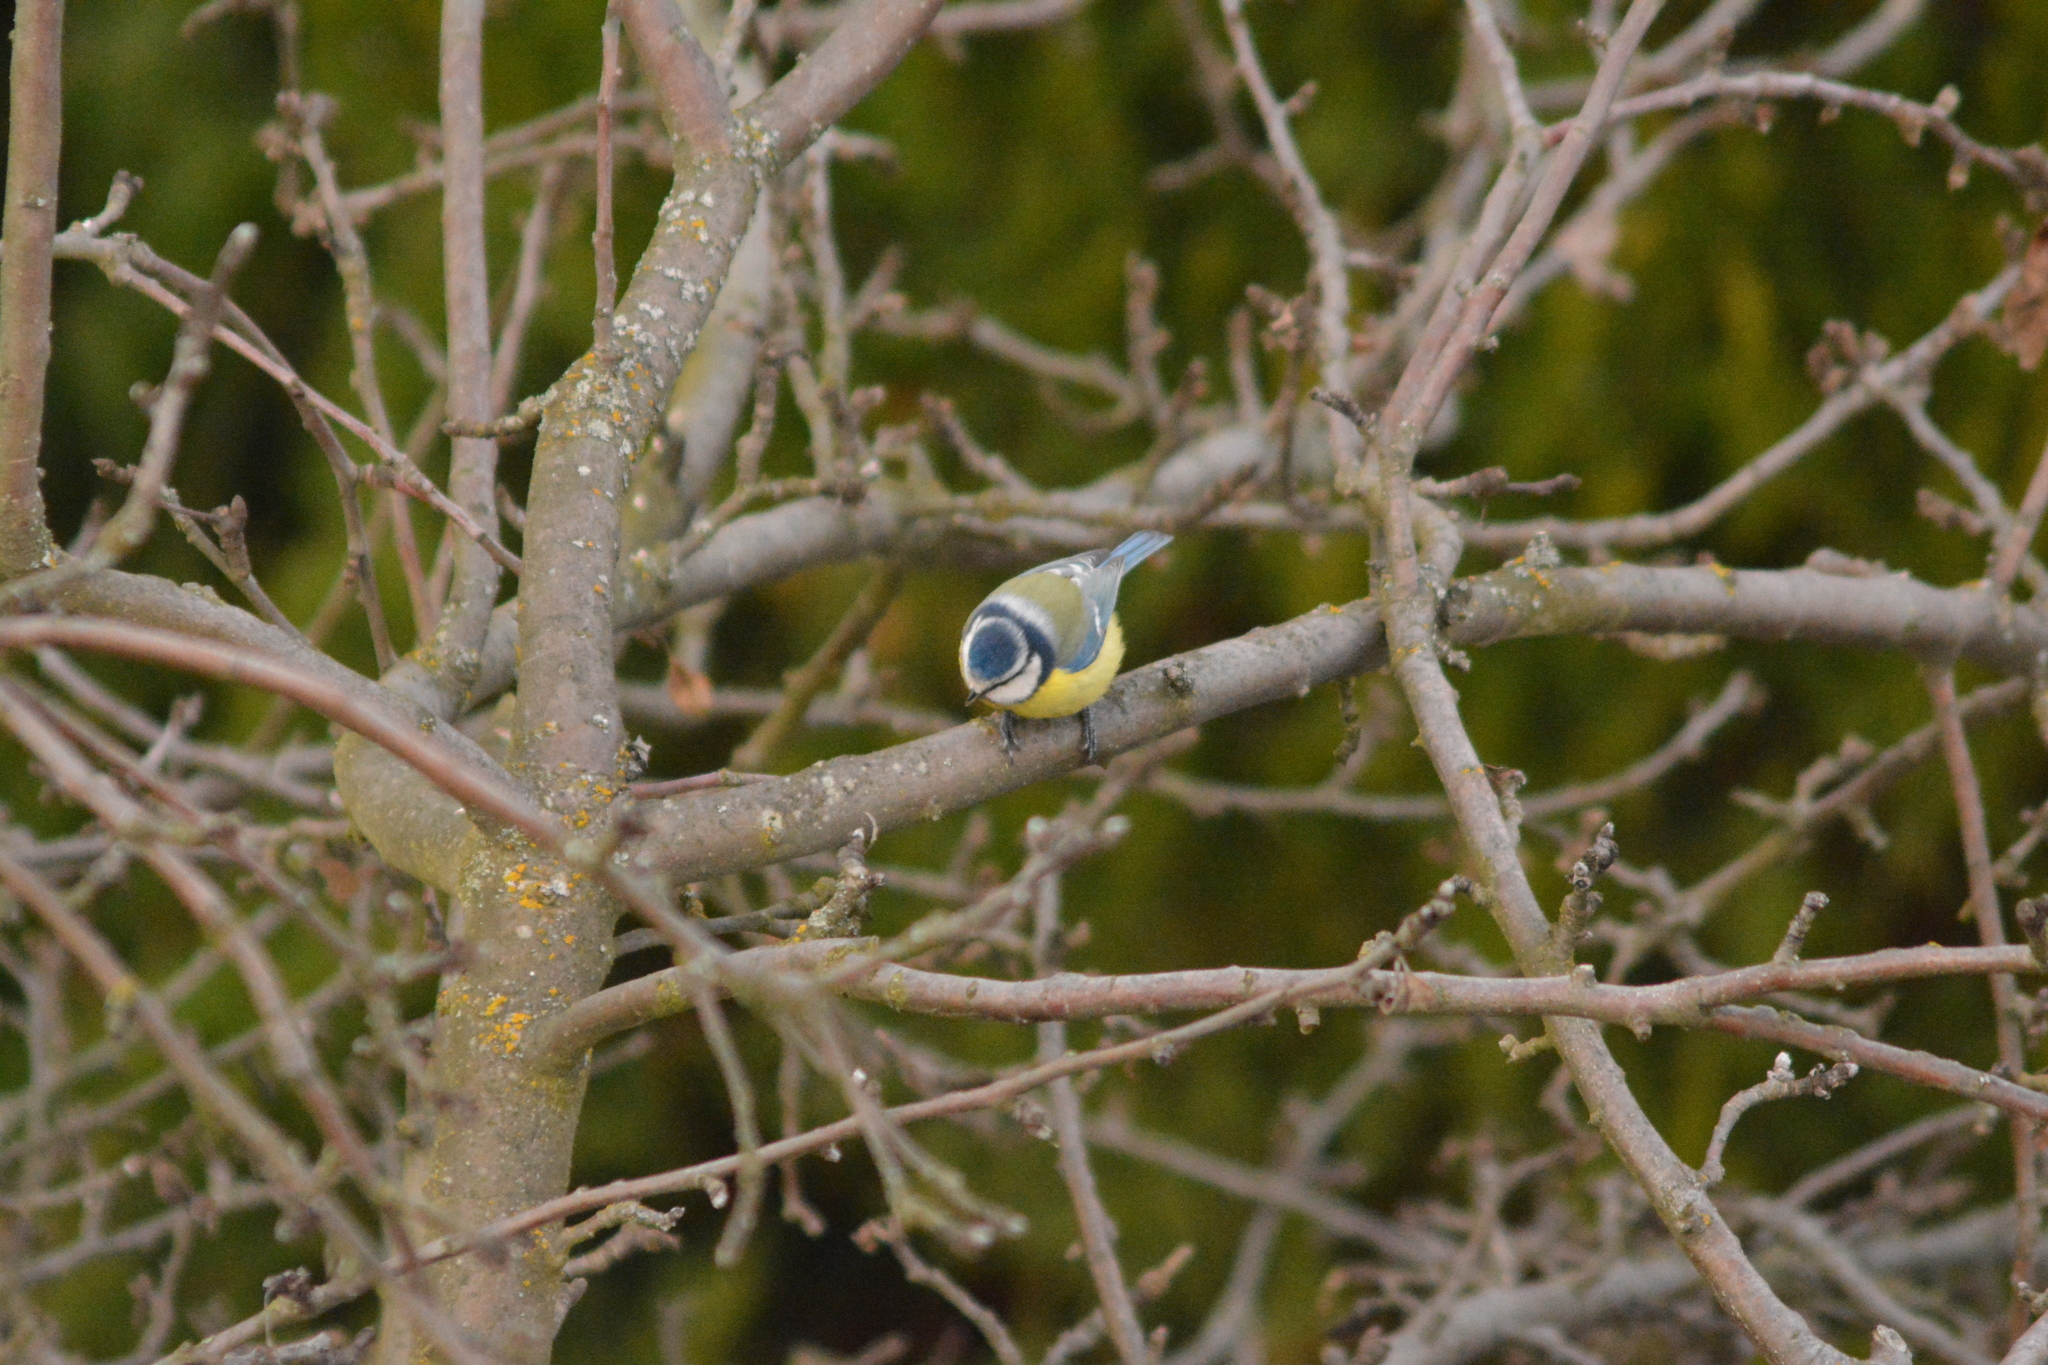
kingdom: Animalia
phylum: Chordata
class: Aves
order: Passeriformes
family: Paridae
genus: Cyanistes
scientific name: Cyanistes caeruleus
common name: Eurasian blue tit
